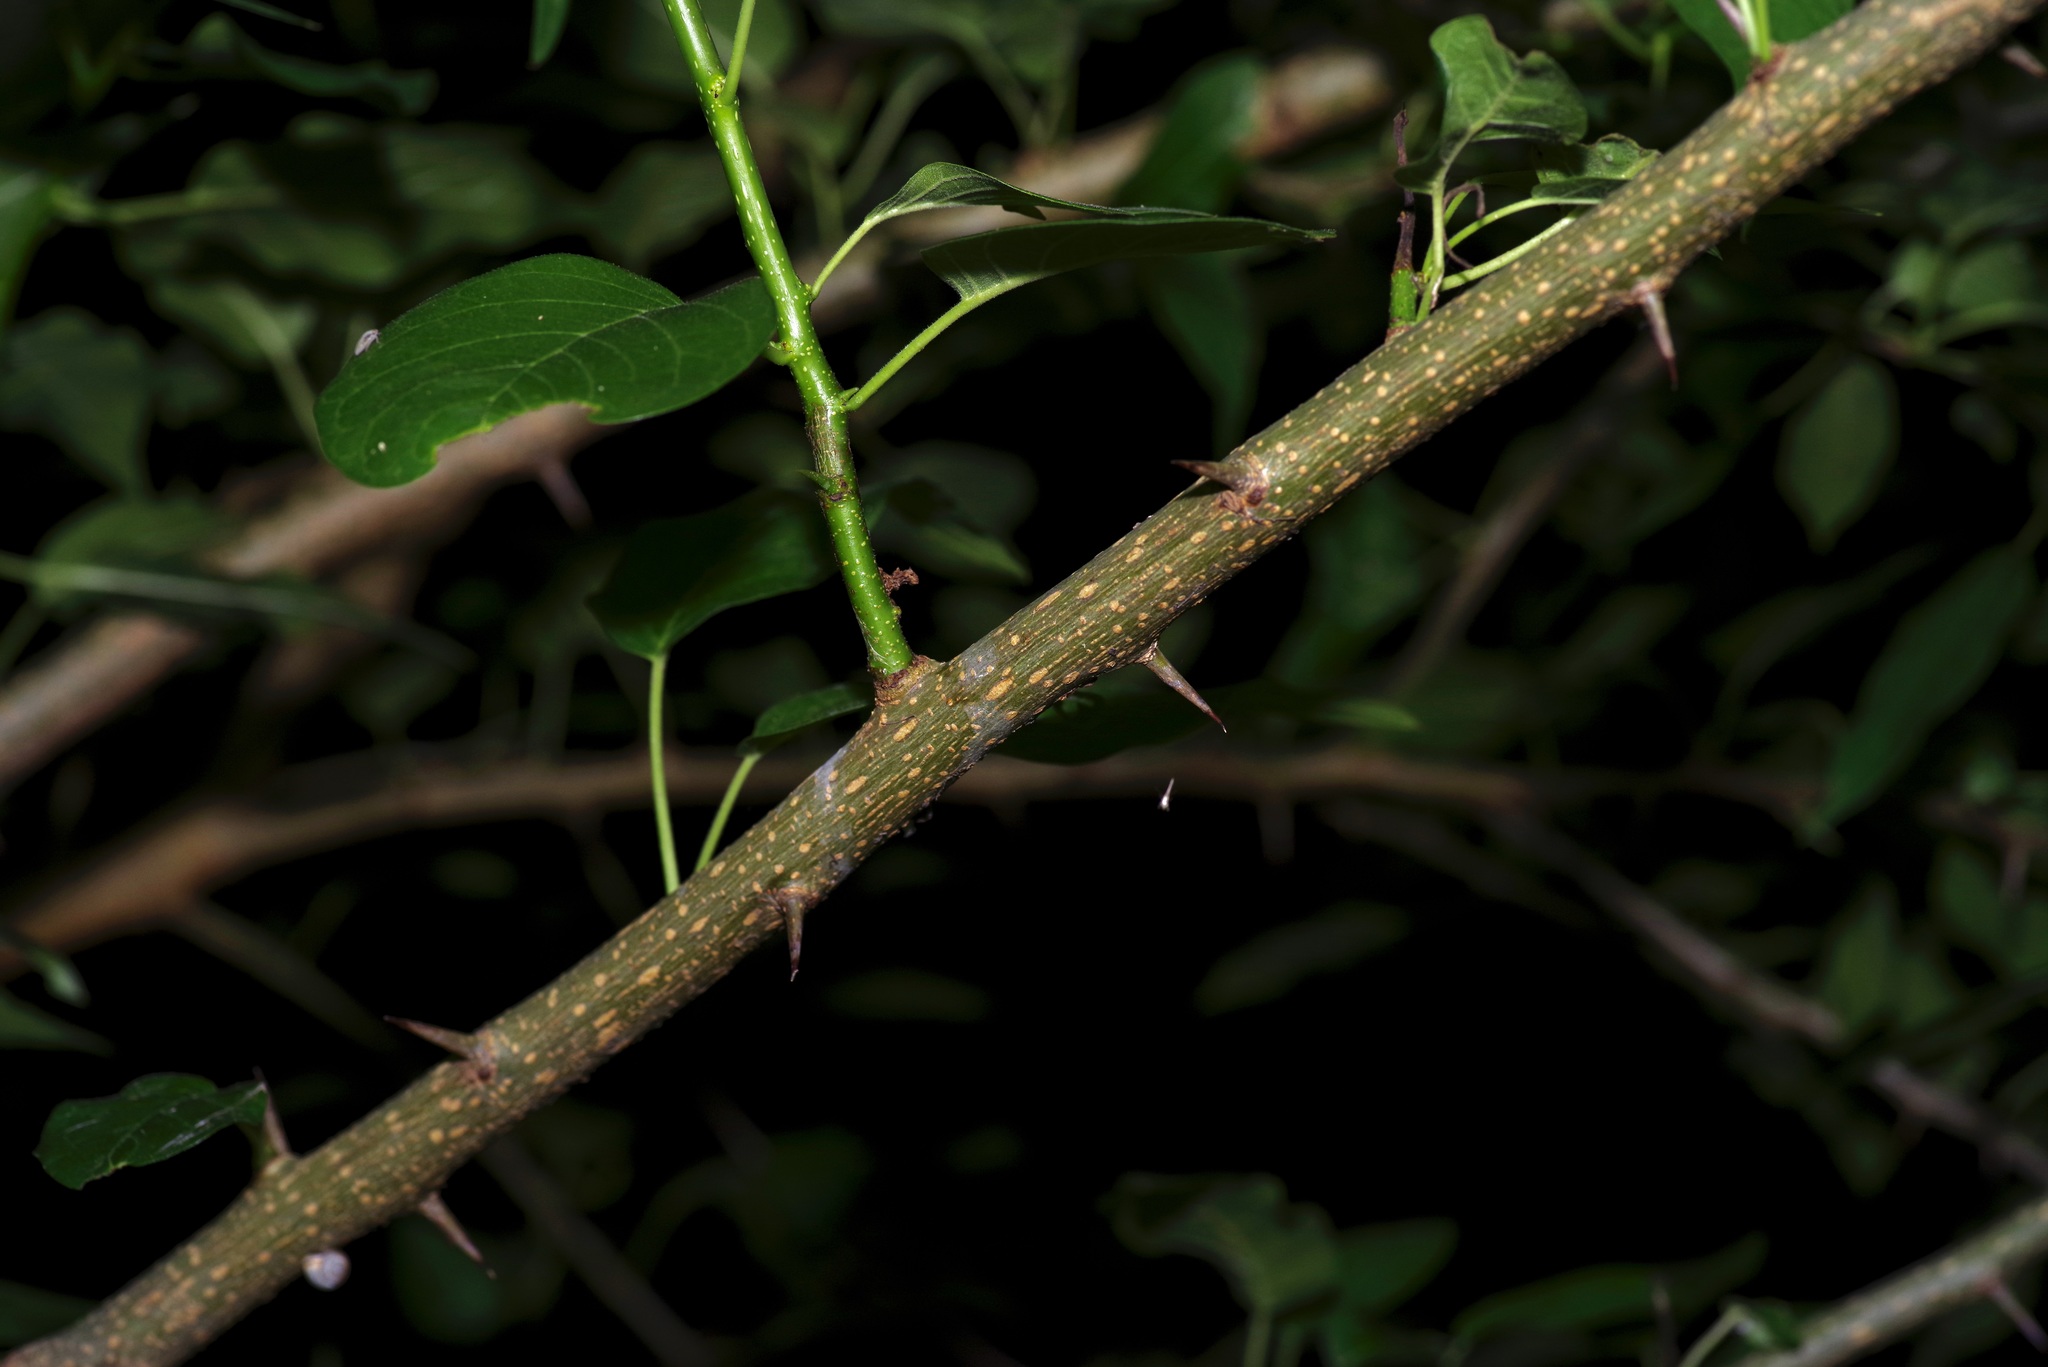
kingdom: Plantae
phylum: Tracheophyta
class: Magnoliopsida
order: Rosales
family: Moraceae
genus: Maclura
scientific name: Maclura pomifera
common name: Osage-orange
